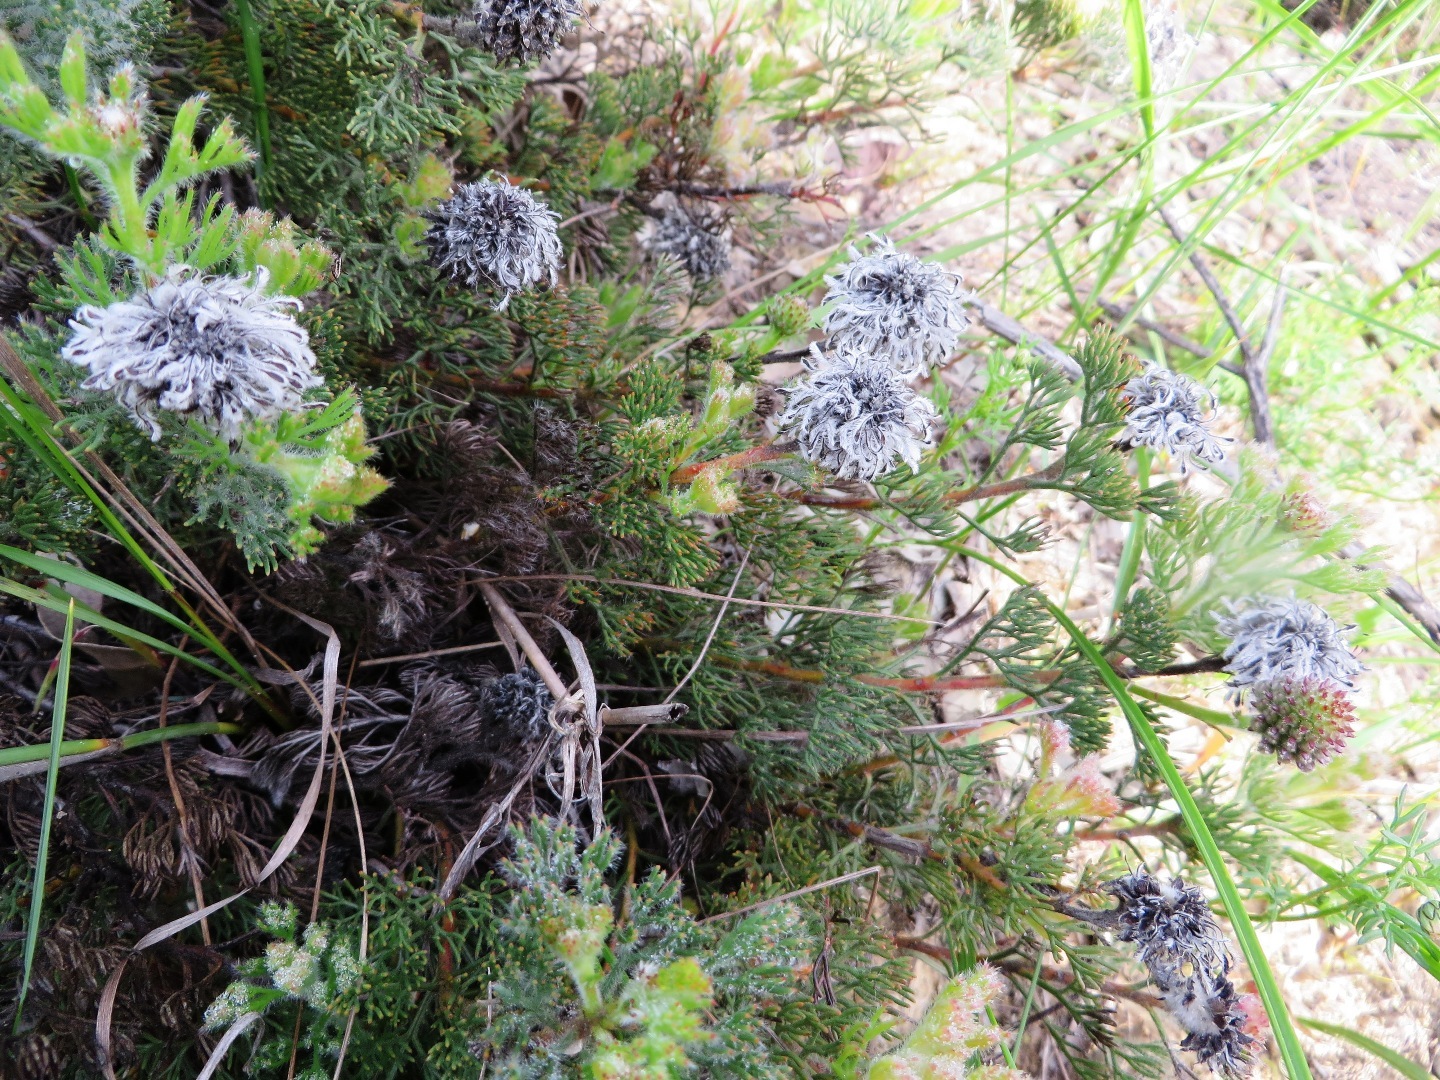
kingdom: Plantae
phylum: Tracheophyta
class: Magnoliopsida
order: Proteales
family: Proteaceae
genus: Serruria
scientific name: Serruria scoparia
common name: Forlorn spiderhead
